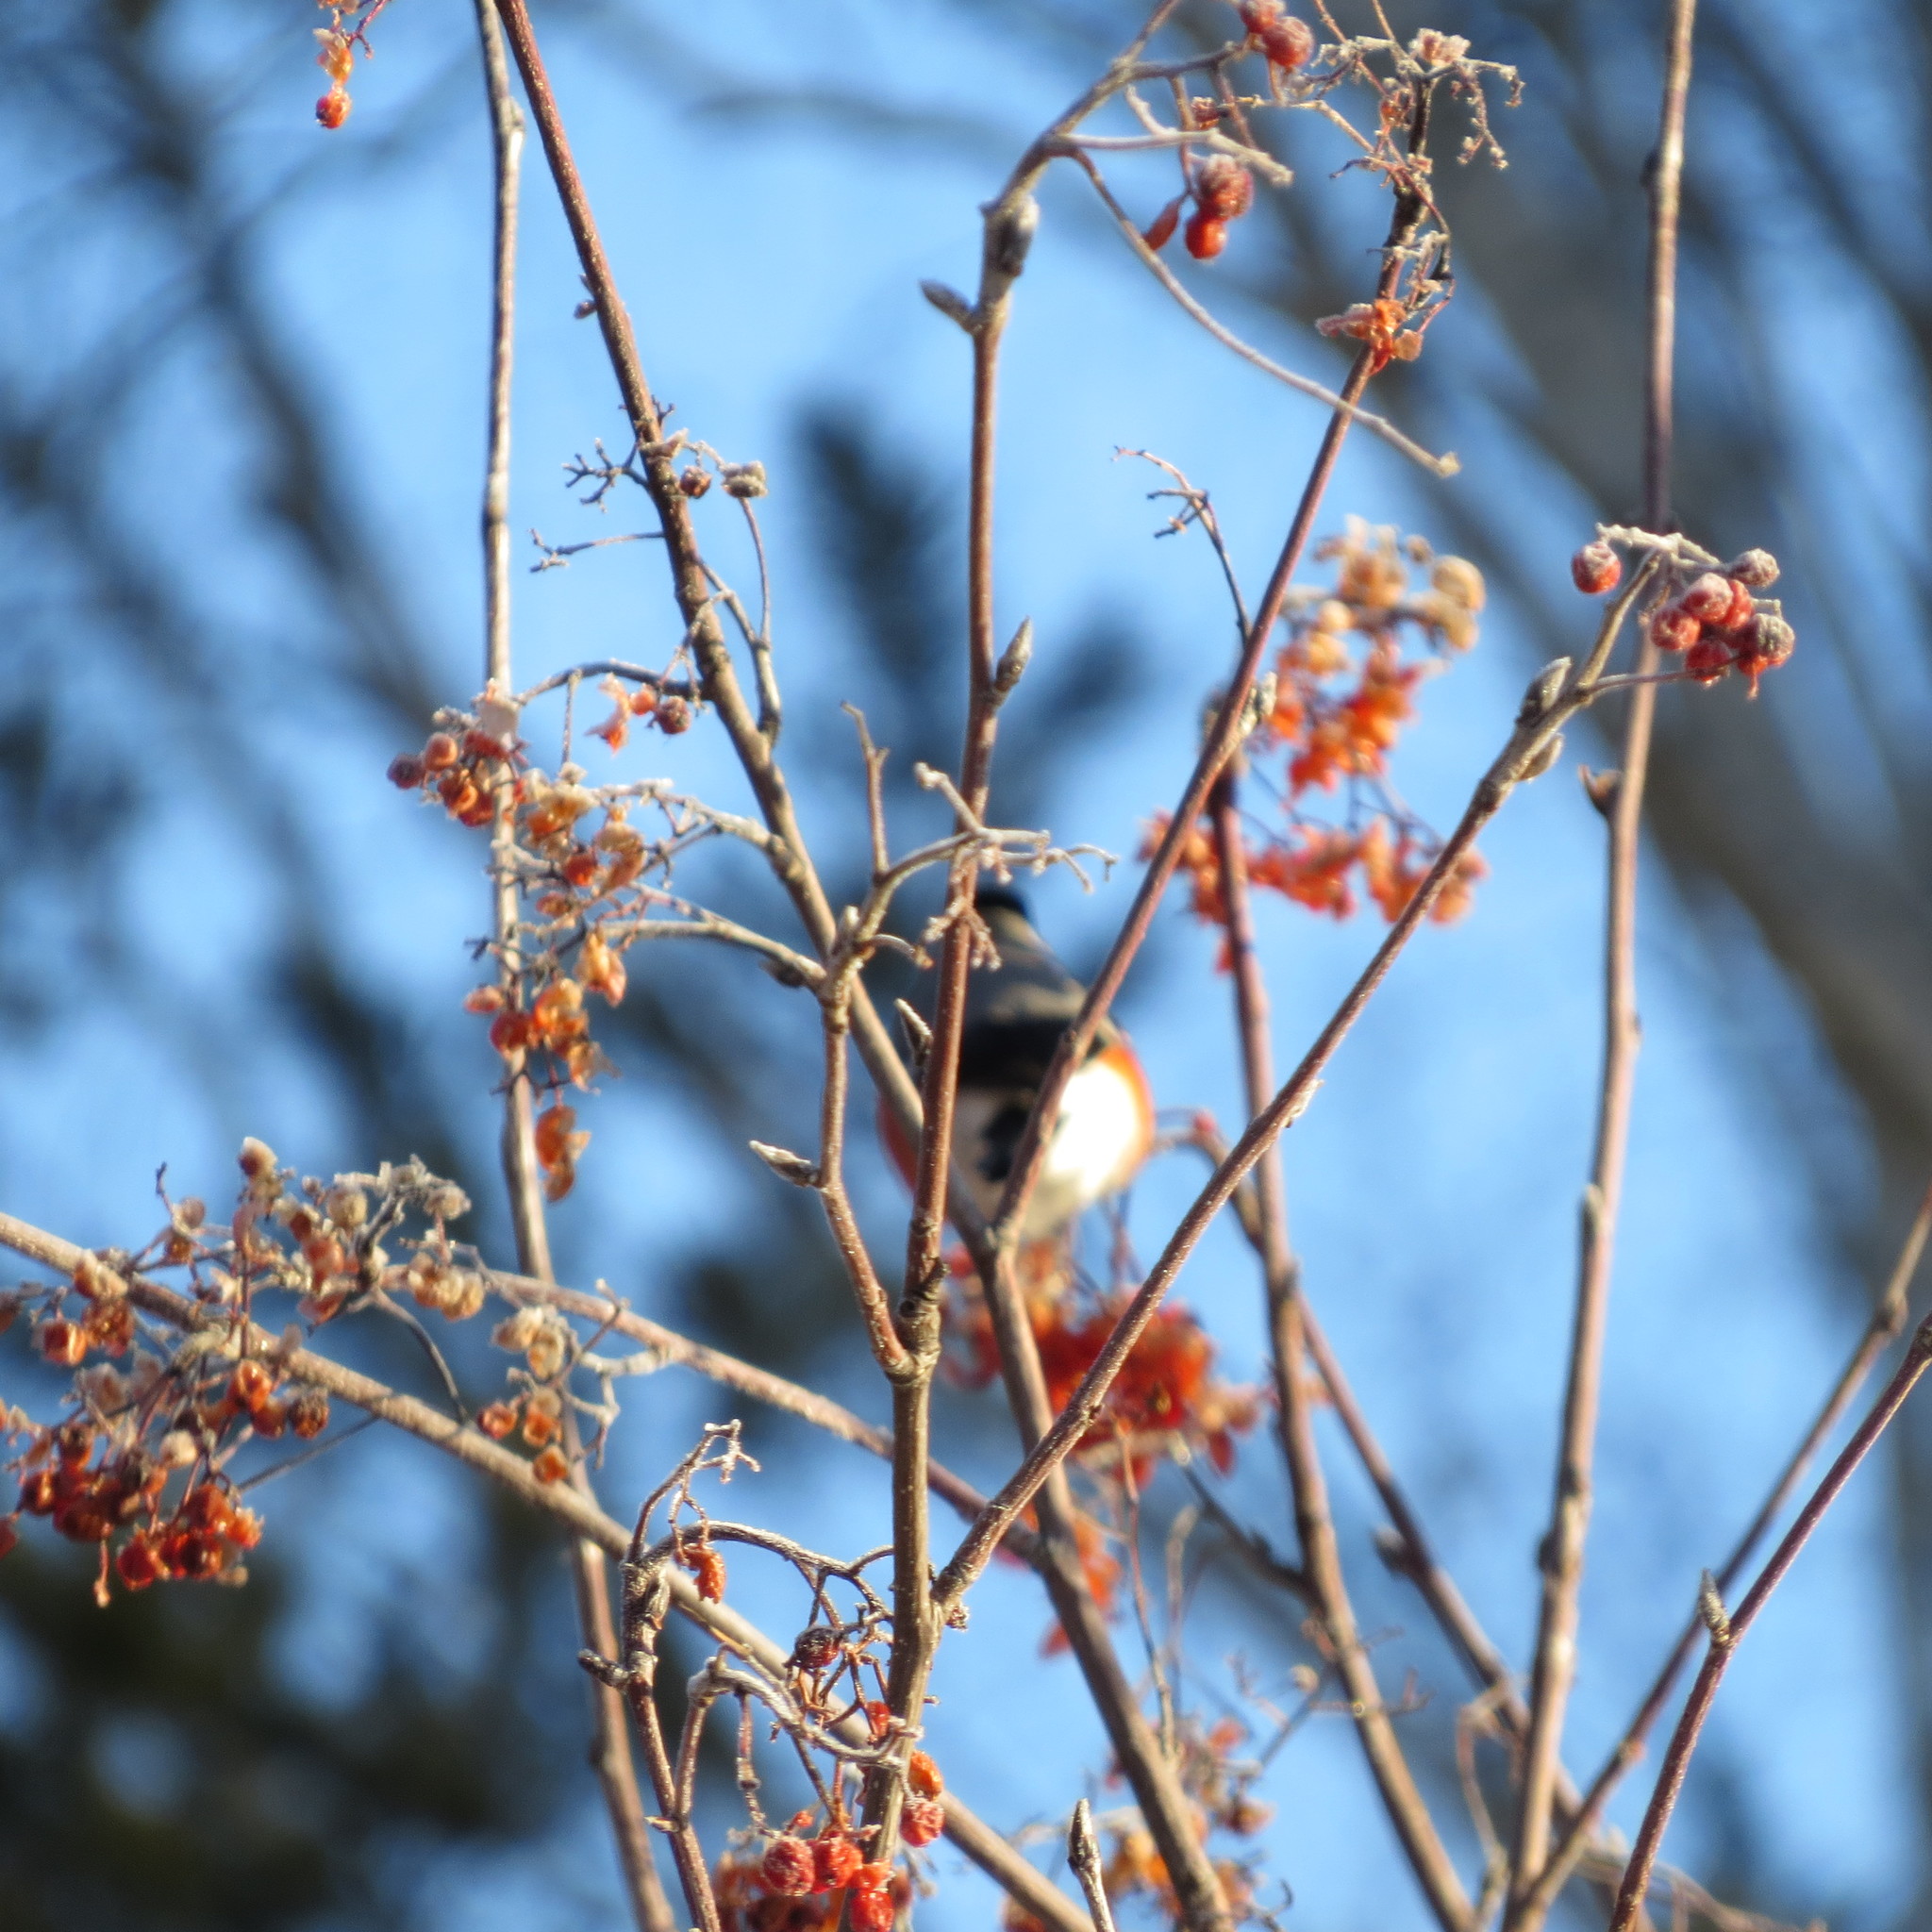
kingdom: Animalia
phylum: Chordata
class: Aves
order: Passeriformes
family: Fringillidae
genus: Pyrrhula
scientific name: Pyrrhula pyrrhula
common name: Eurasian bullfinch
